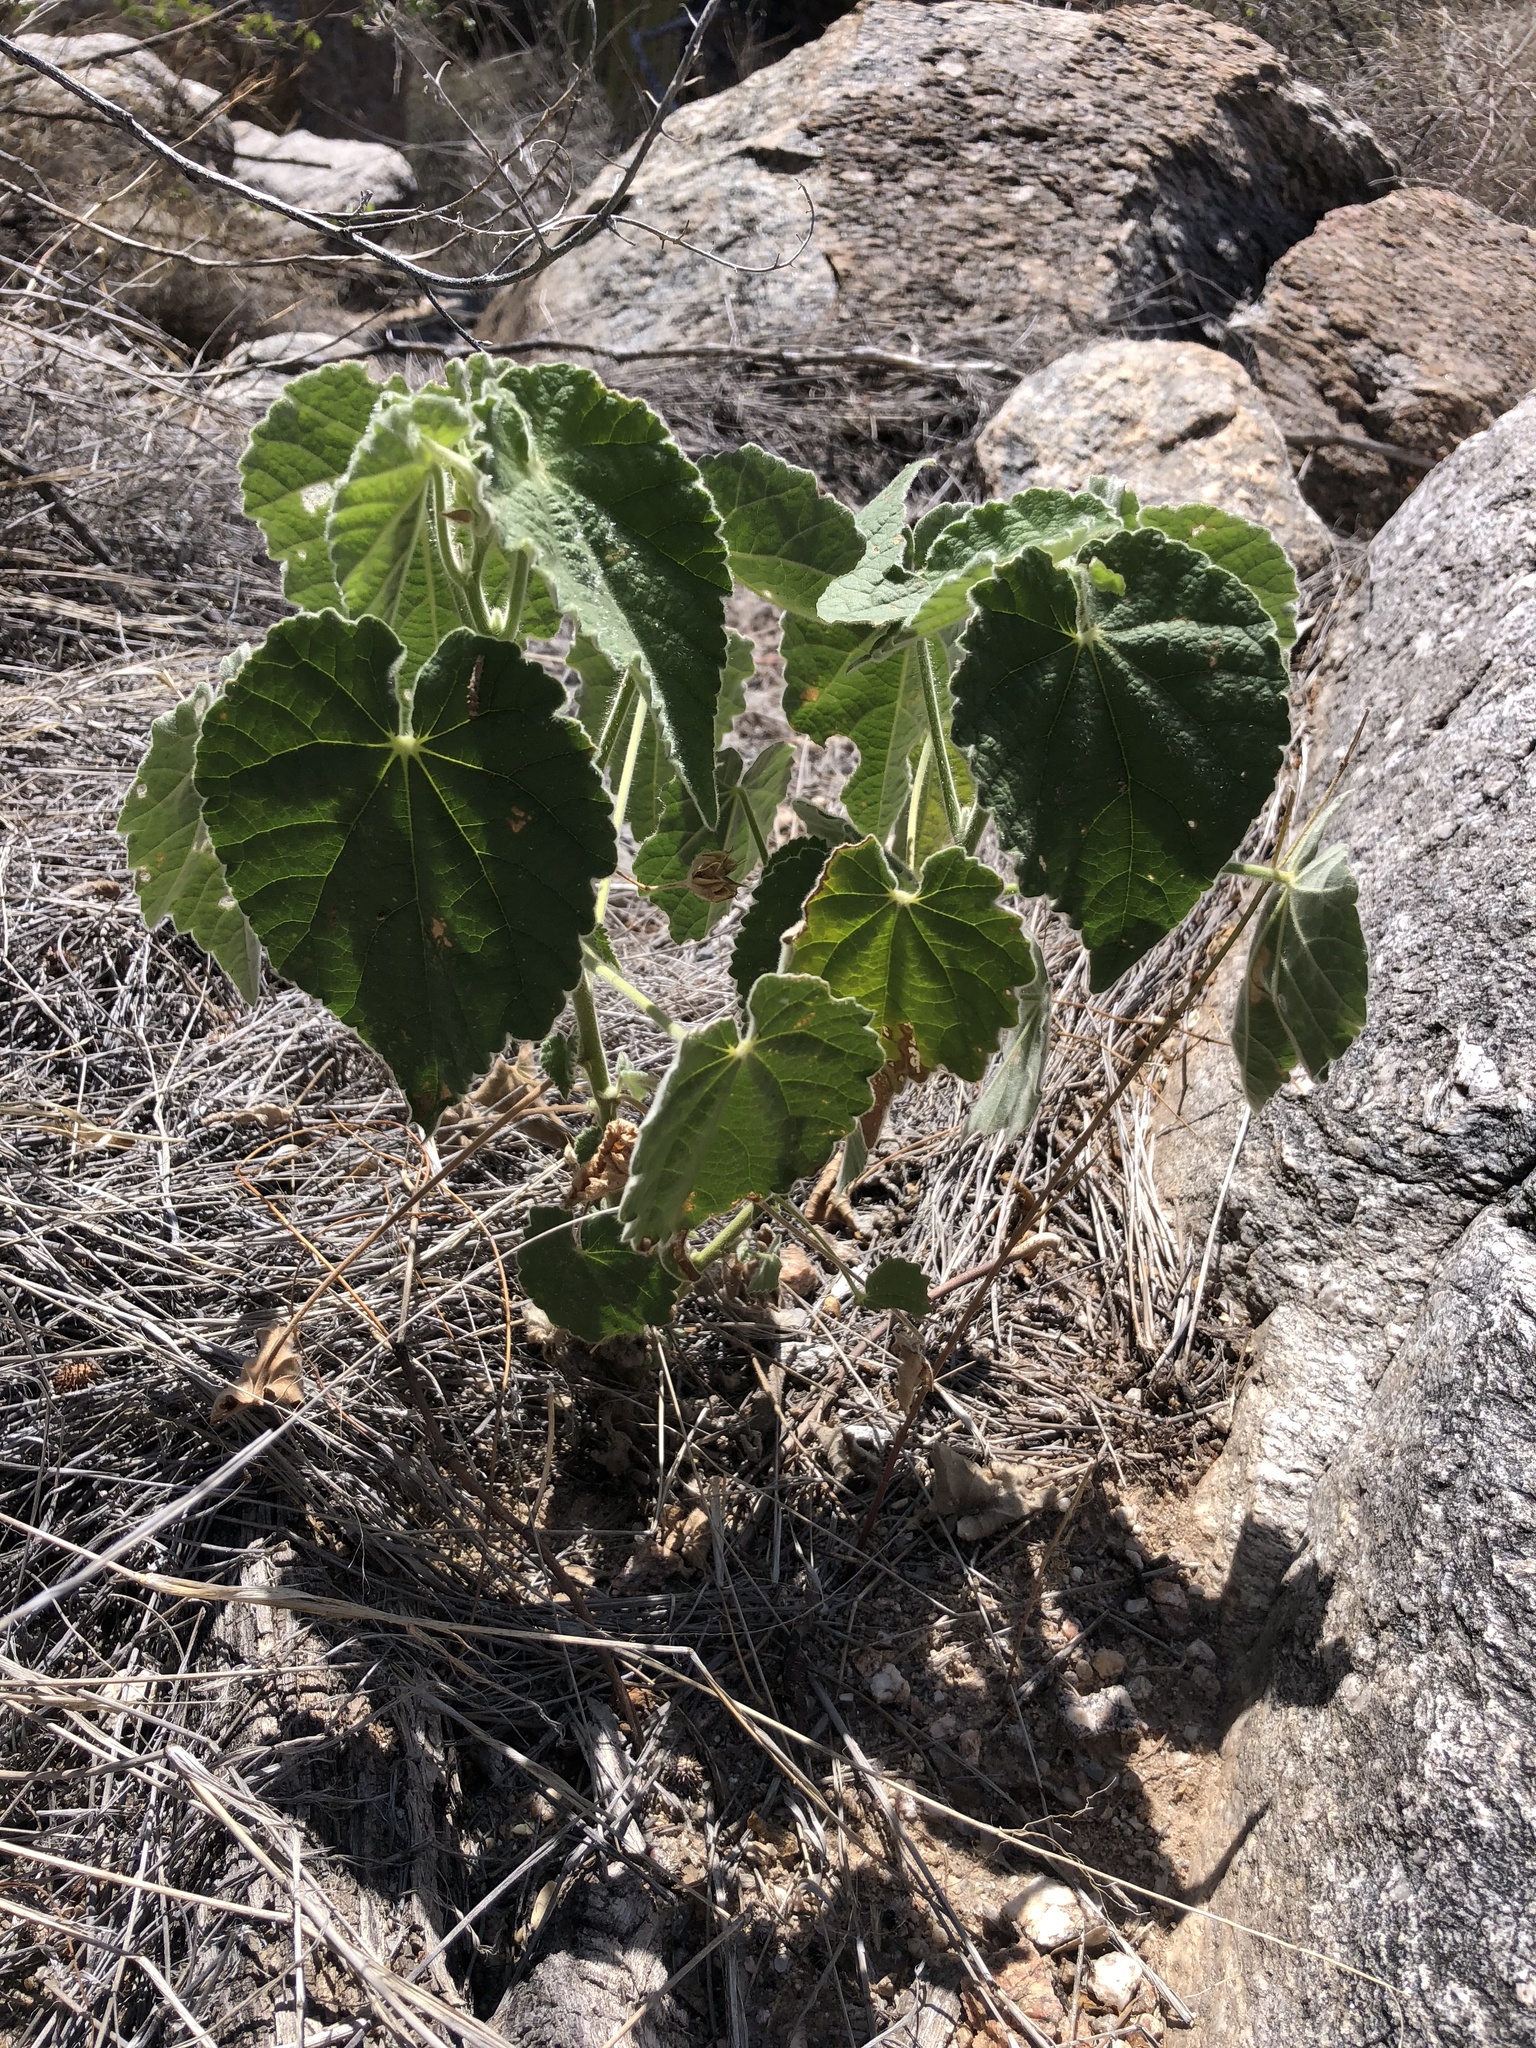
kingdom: Plantae
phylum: Tracheophyta
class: Magnoliopsida
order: Malvales
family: Malvaceae
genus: Abutilon
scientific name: Abutilon parishii
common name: Parish's abutilon
